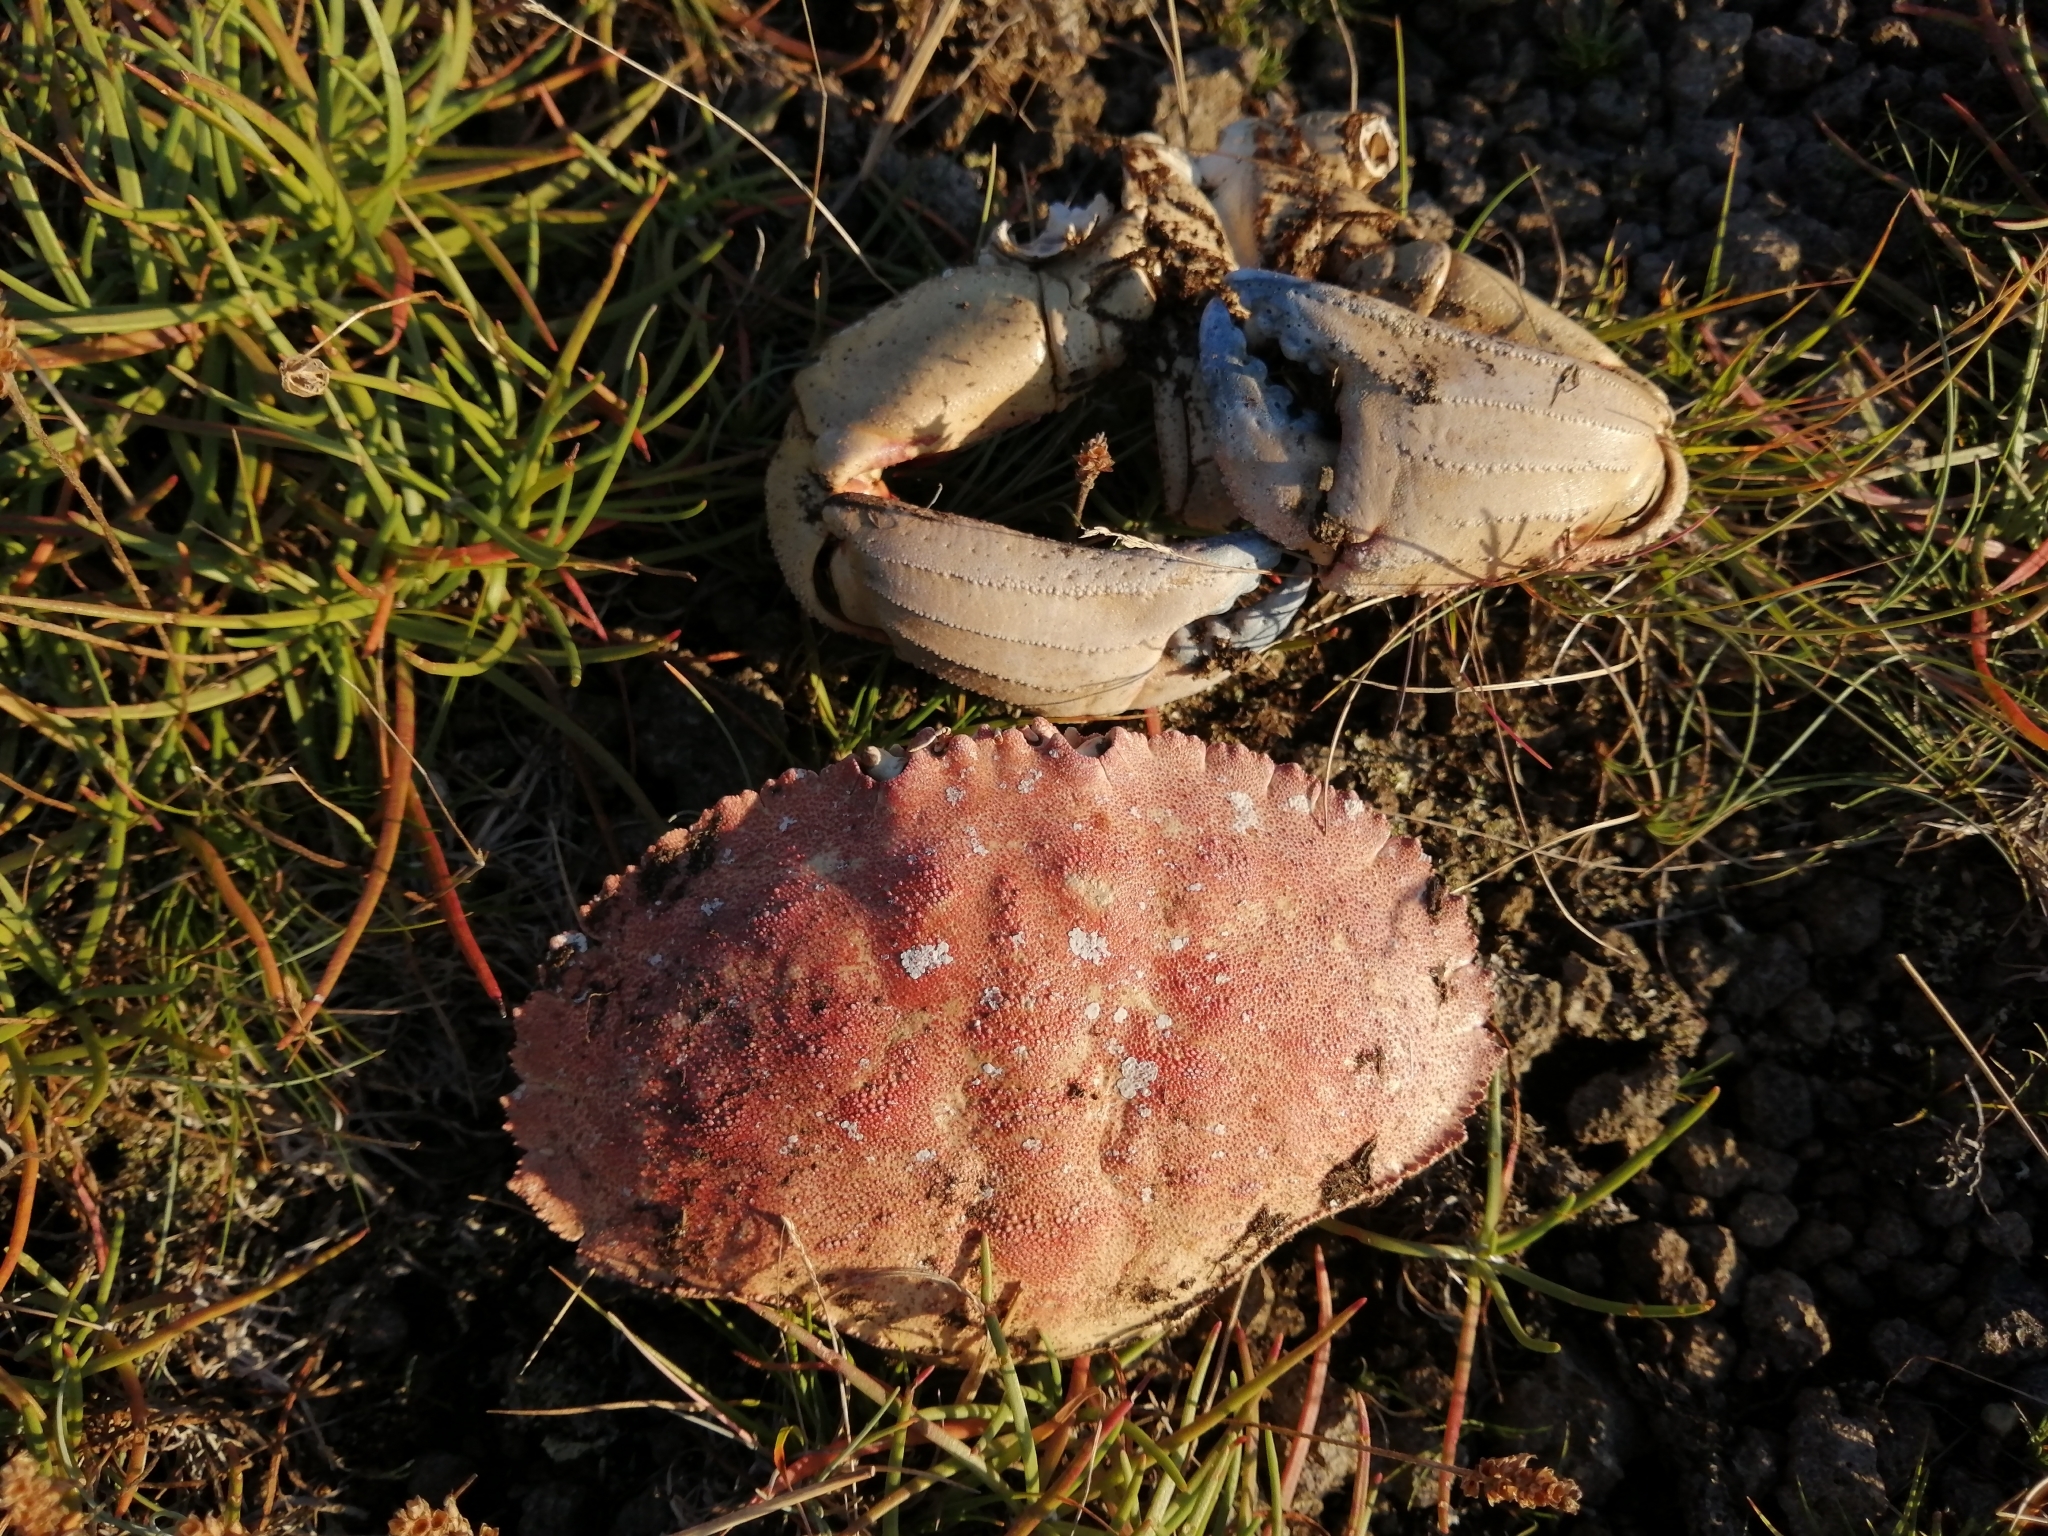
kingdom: Animalia
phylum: Arthropoda
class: Malacostraca
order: Decapoda
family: Cancridae
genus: Cancer
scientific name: Cancer borealis
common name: Jonah crab
